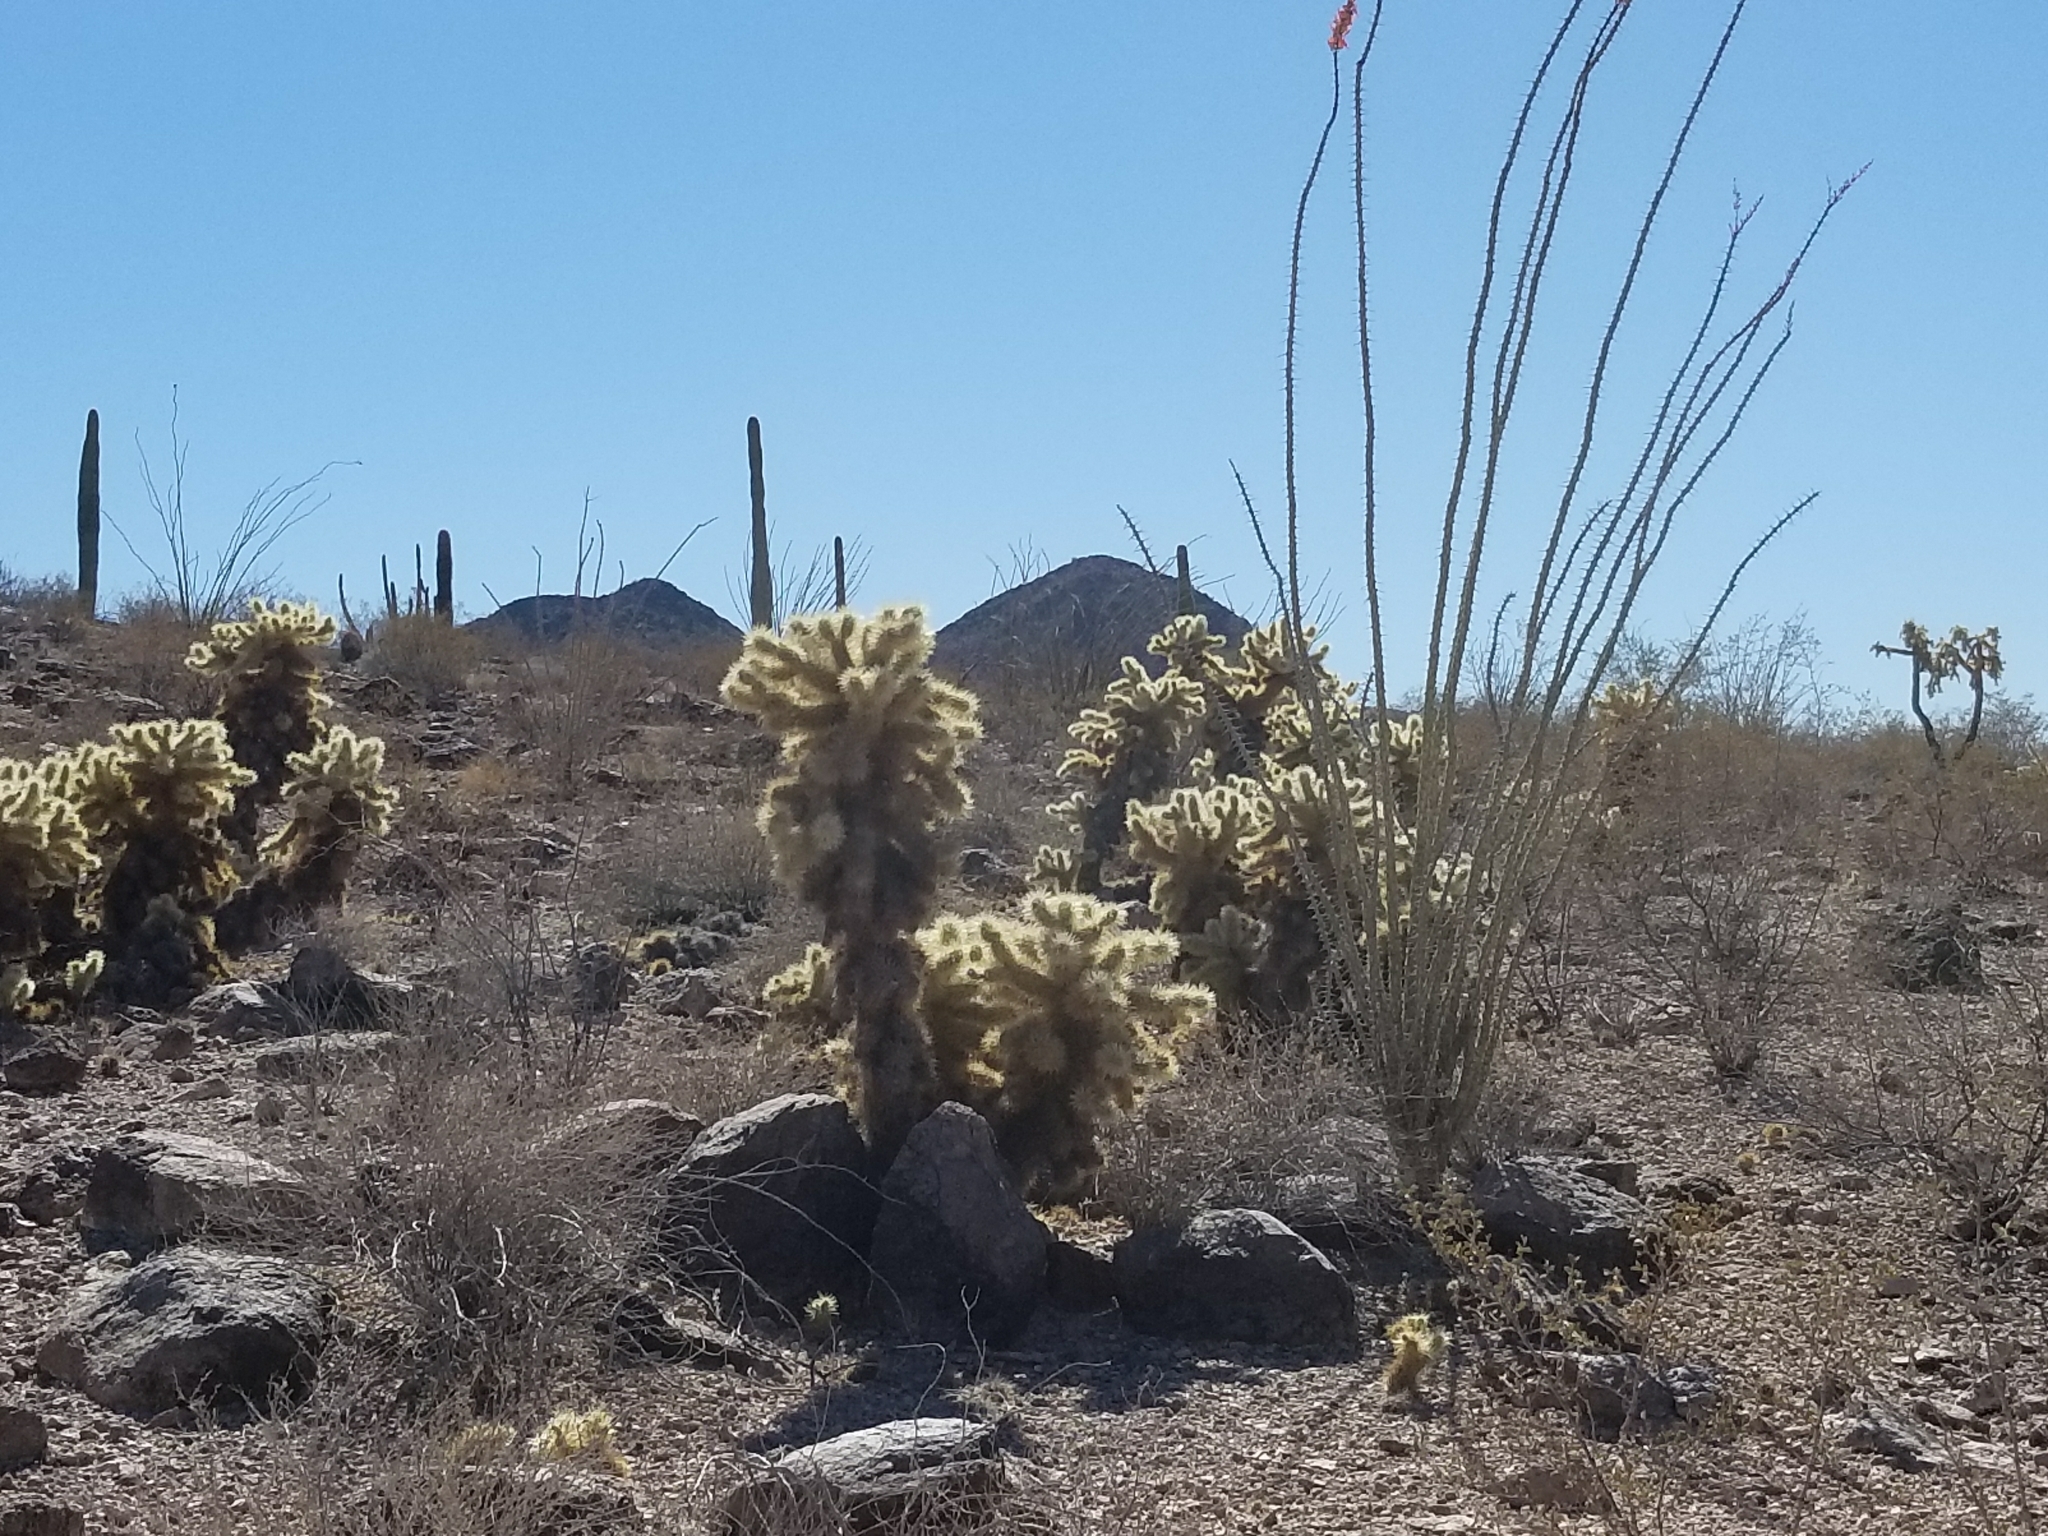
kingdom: Plantae
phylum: Tracheophyta
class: Magnoliopsida
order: Caryophyllales
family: Cactaceae
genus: Cylindropuntia
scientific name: Cylindropuntia fosbergii
